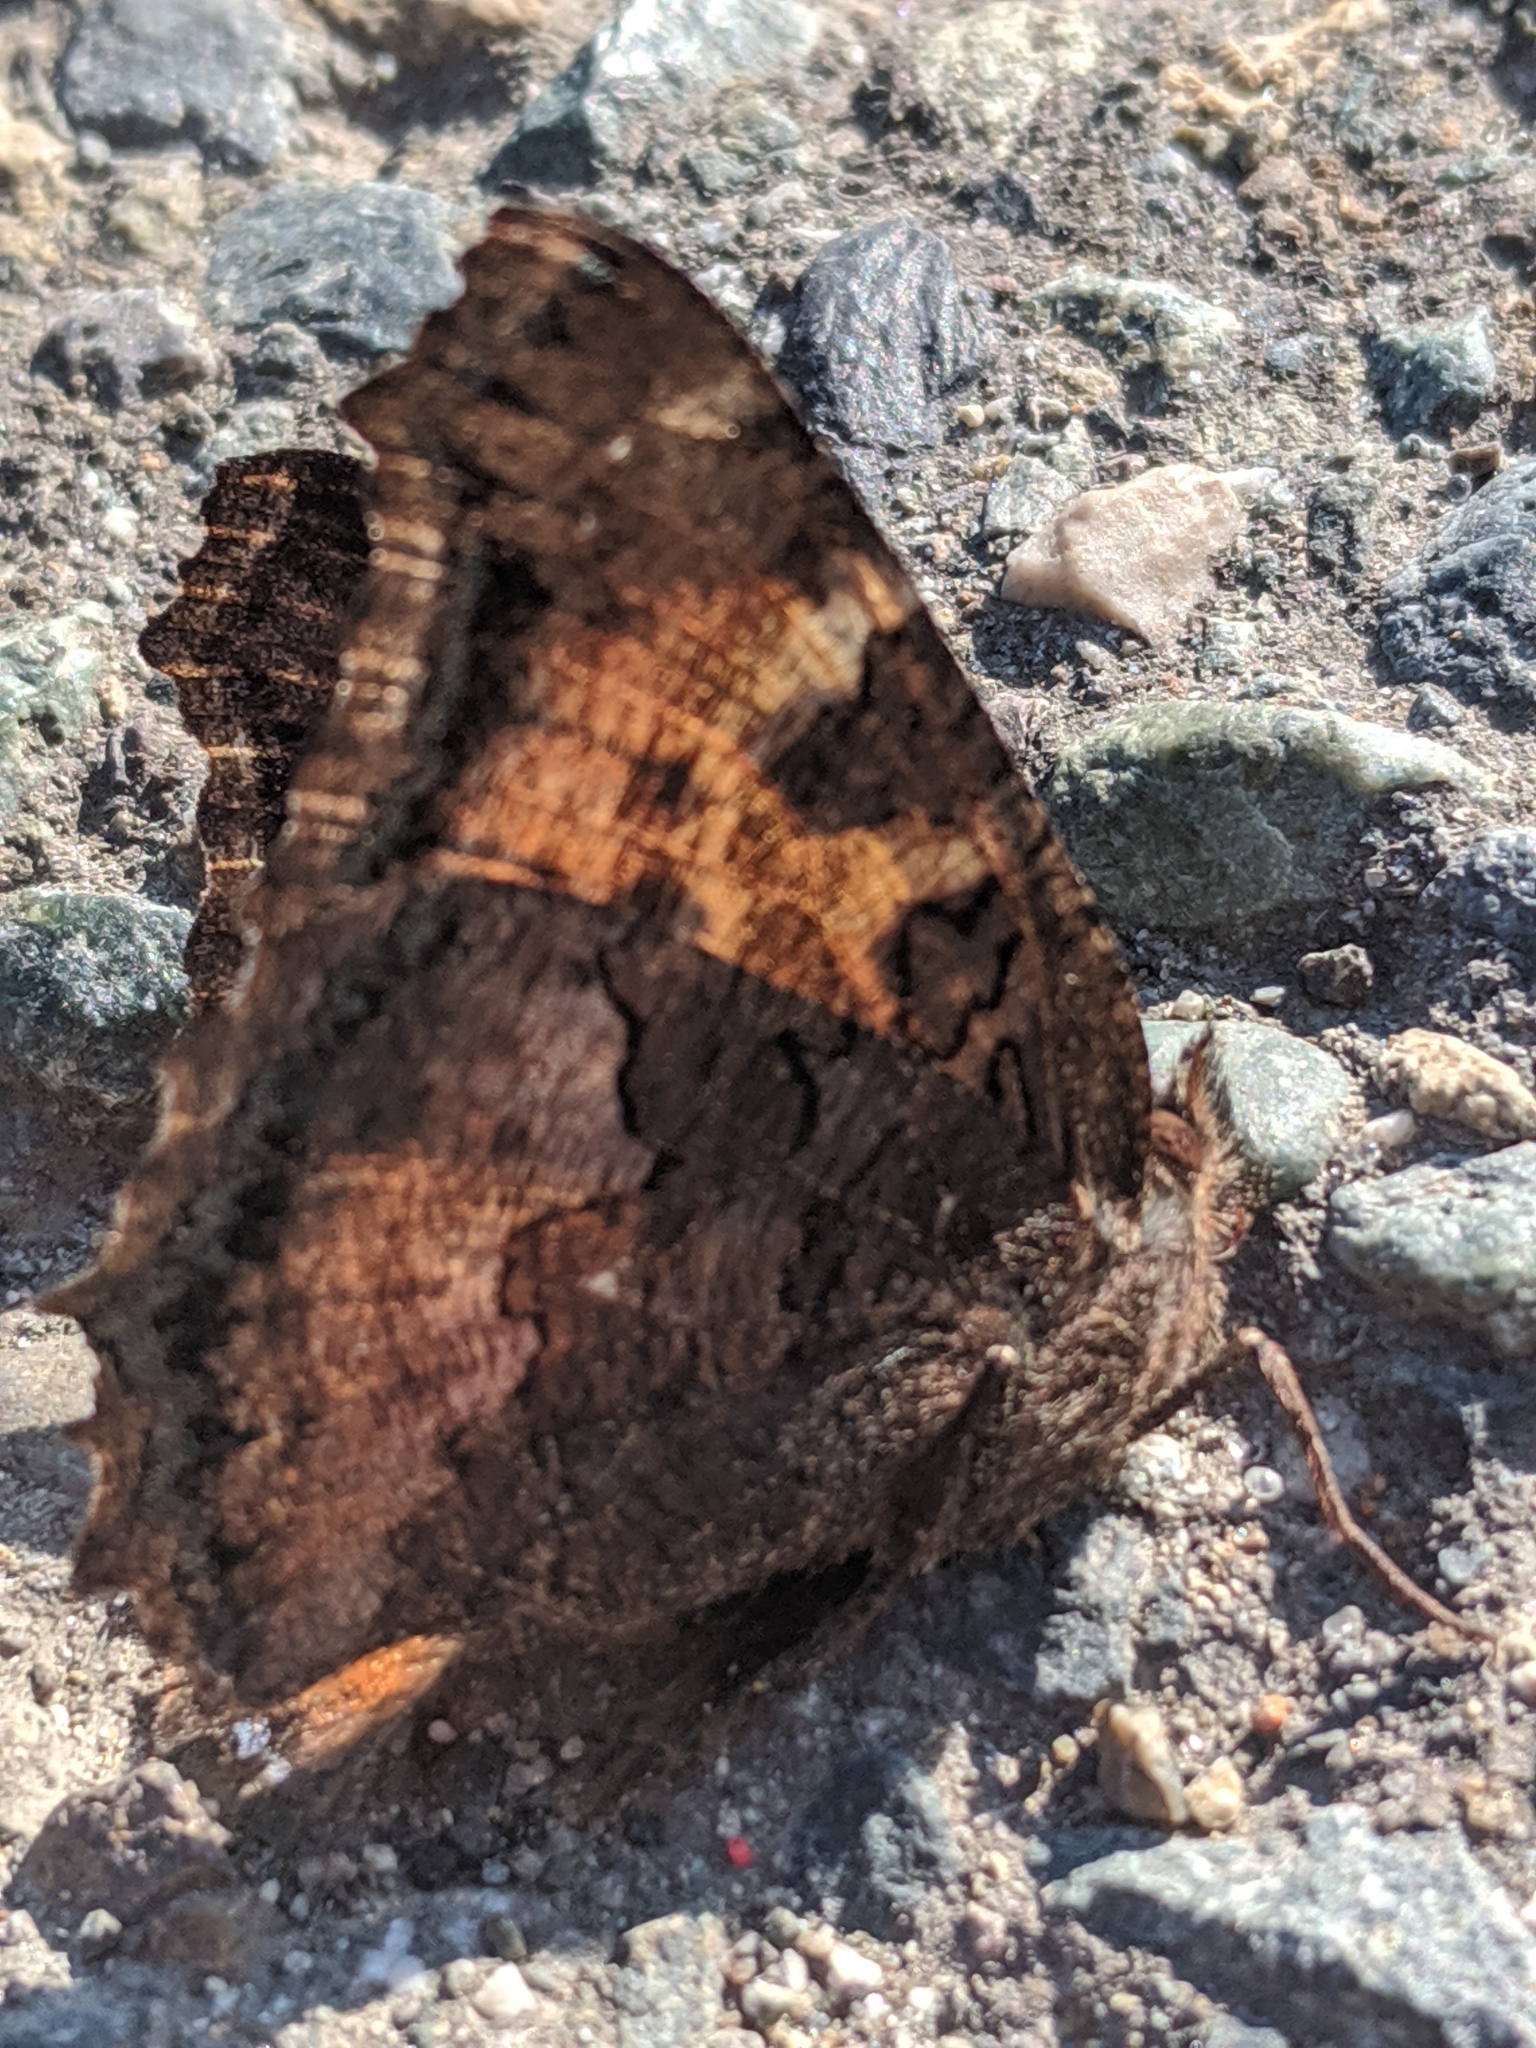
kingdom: Animalia
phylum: Arthropoda
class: Insecta
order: Lepidoptera
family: Nymphalidae
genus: Nymphalis
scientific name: Nymphalis californica
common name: California tortoiseshell
